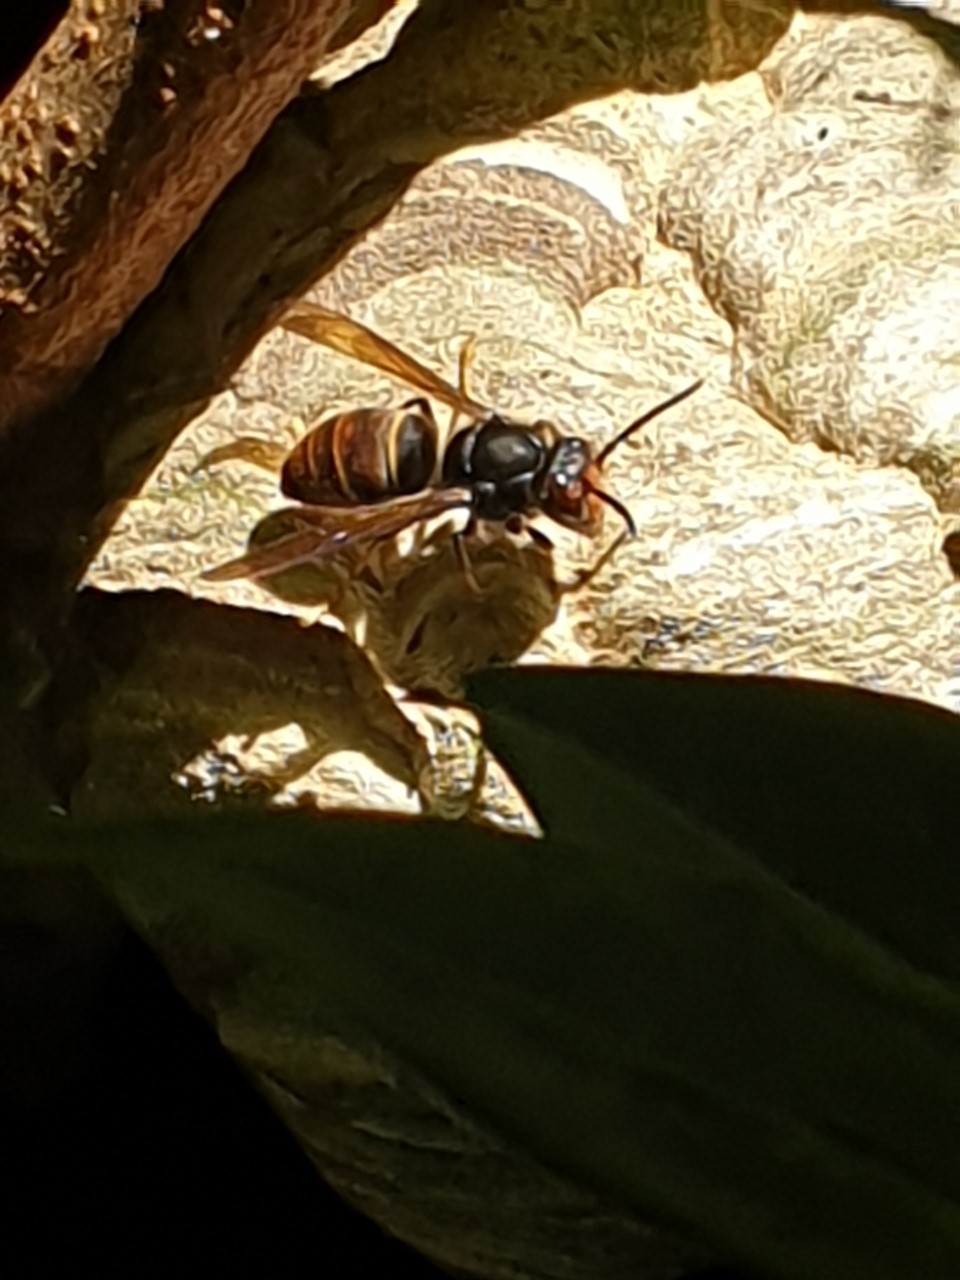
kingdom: Animalia
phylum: Arthropoda
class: Insecta
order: Hymenoptera
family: Vespidae
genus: Vespa
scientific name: Vespa velutina
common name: Asian hornet
